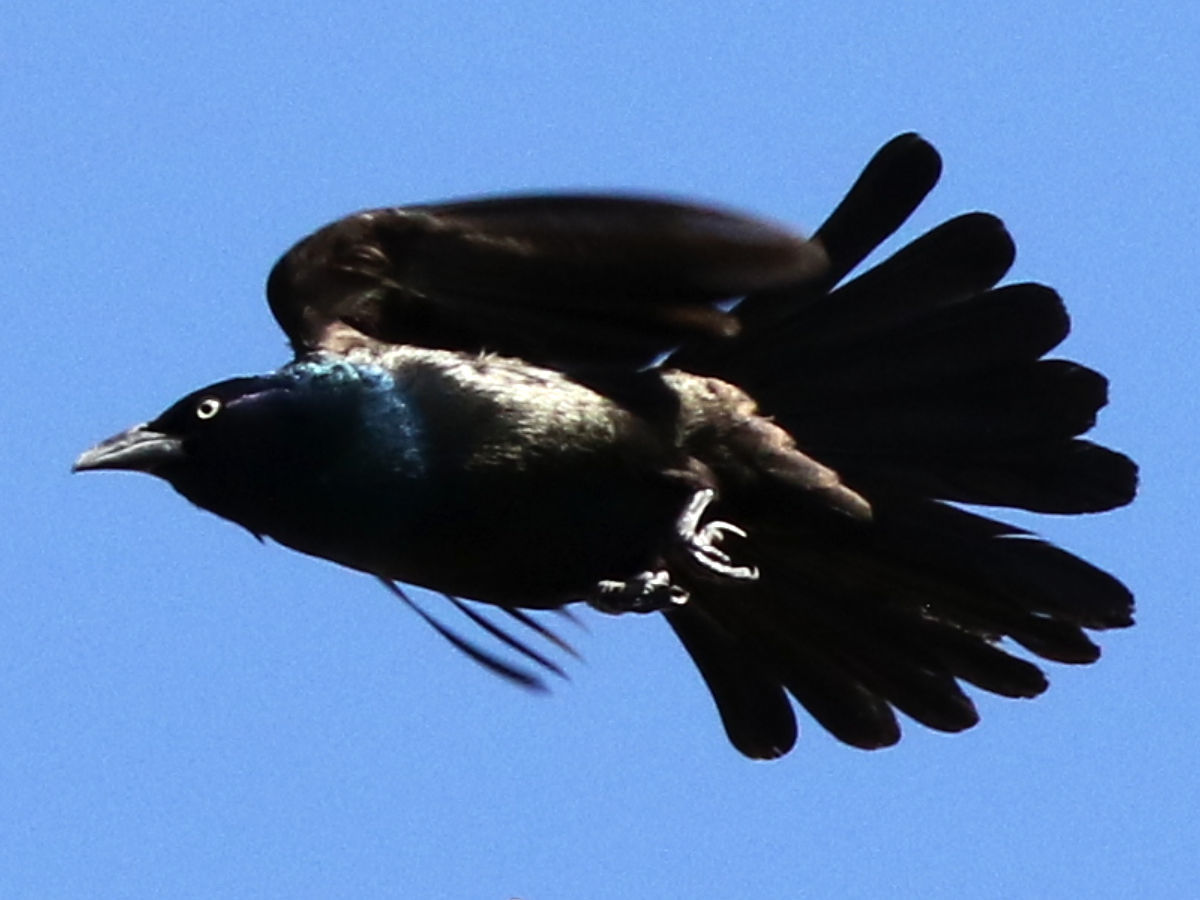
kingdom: Animalia
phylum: Chordata
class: Aves
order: Passeriformes
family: Icteridae
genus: Quiscalus
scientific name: Quiscalus quiscula
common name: Common grackle
